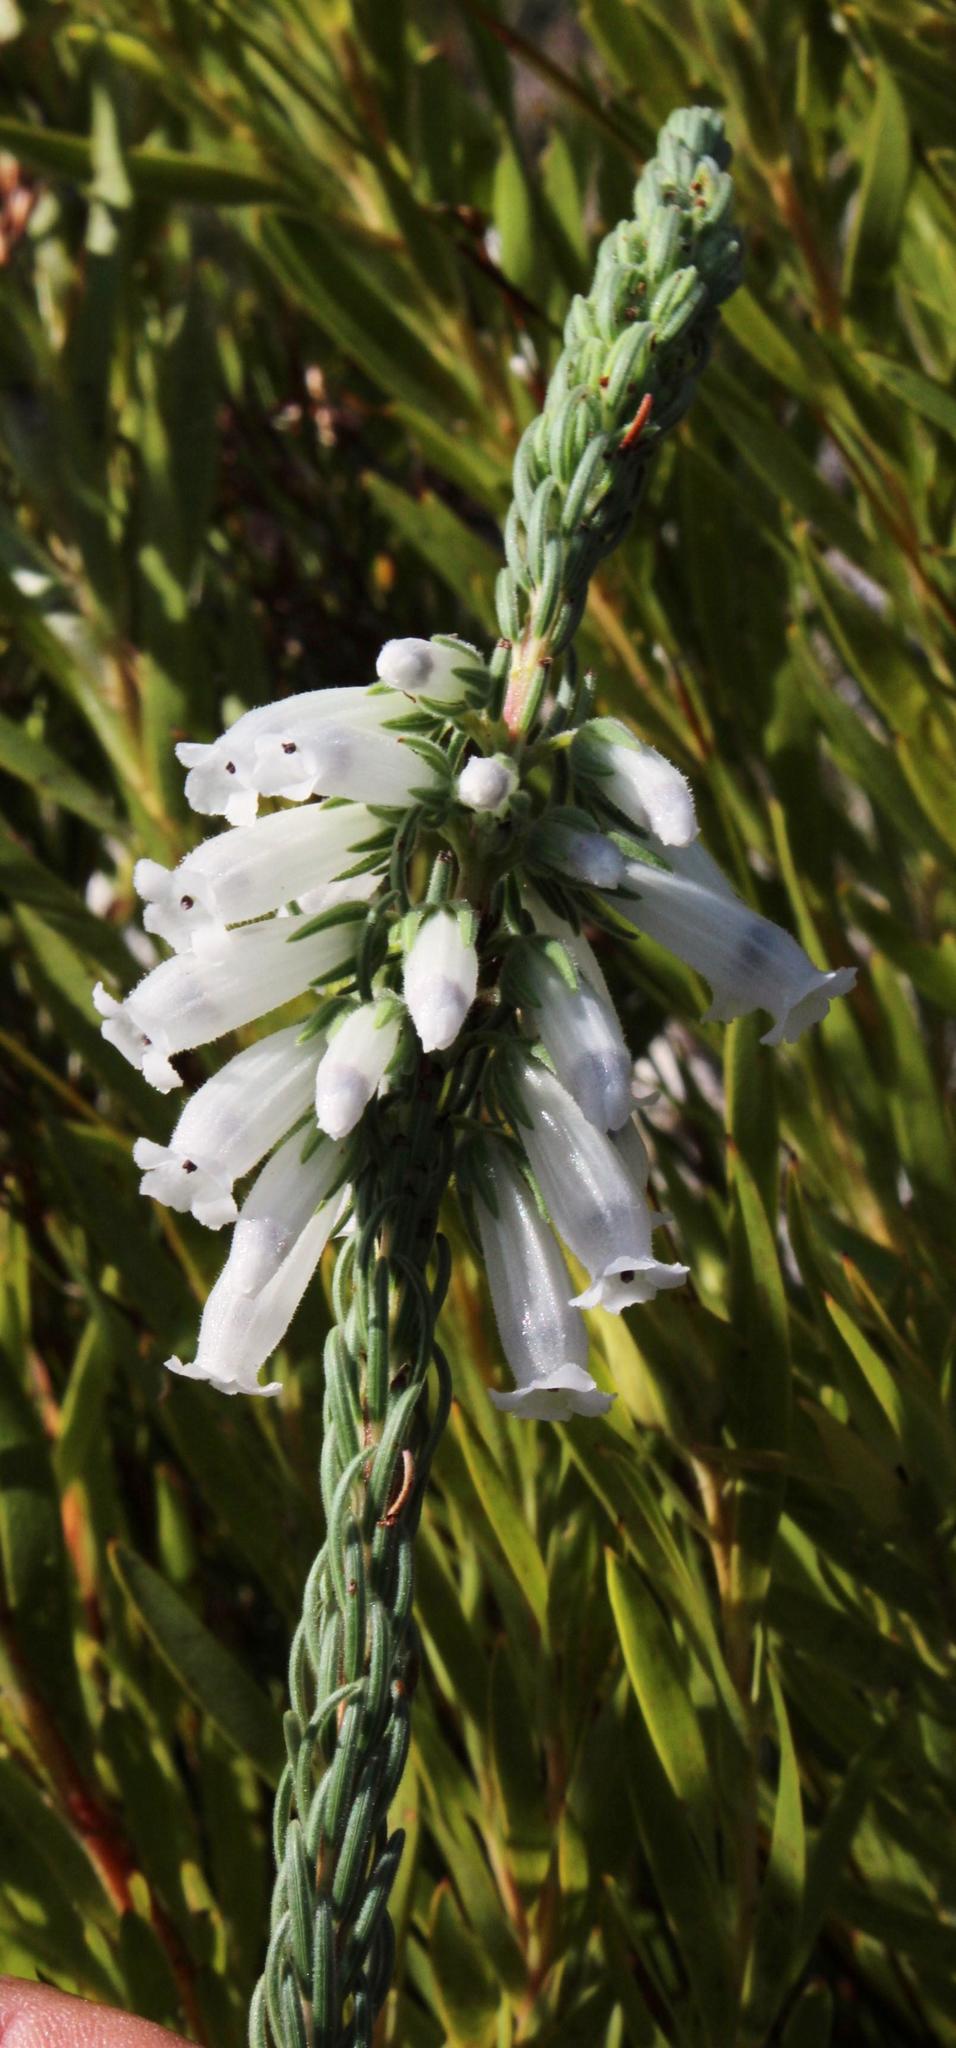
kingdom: Plantae
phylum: Tracheophyta
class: Magnoliopsida
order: Ericales
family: Ericaceae
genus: Erica
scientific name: Erica viscaria
